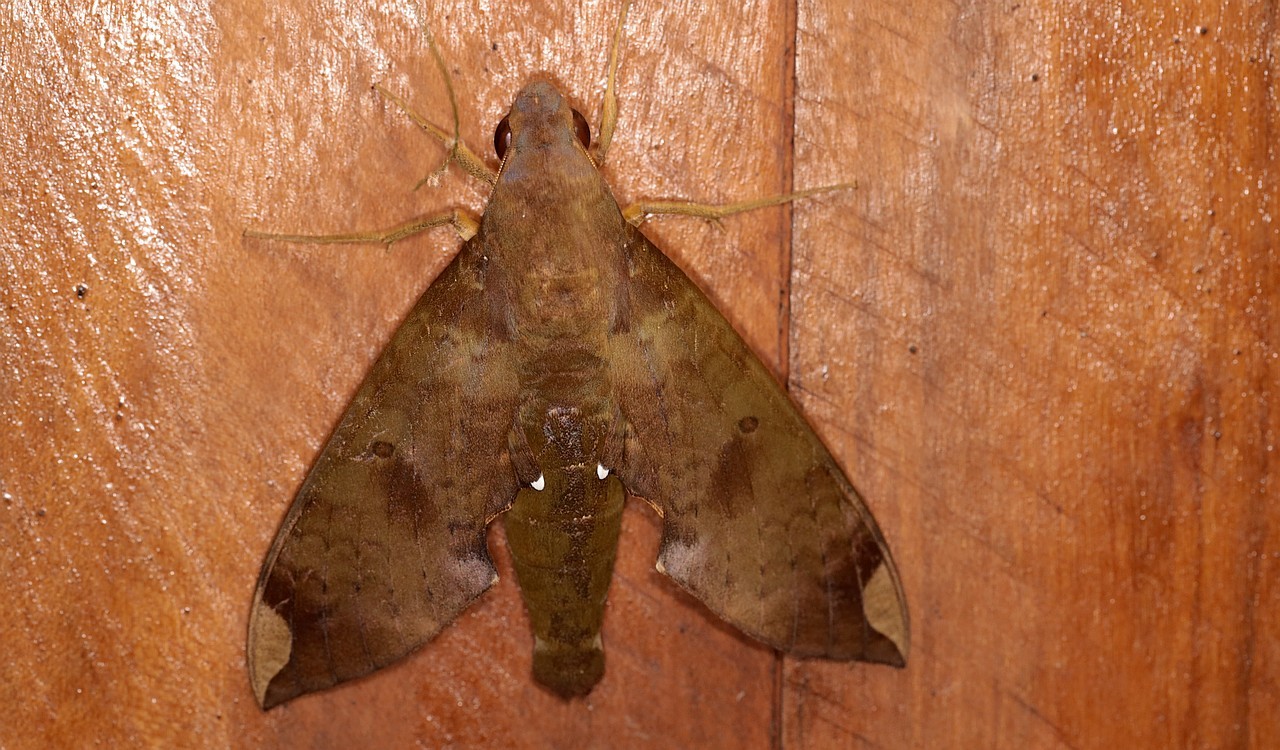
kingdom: Animalia
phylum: Arthropoda
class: Insecta
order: Lepidoptera
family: Sphingidae
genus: Pachylia
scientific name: Pachylia ficus
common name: Fig sphinx
